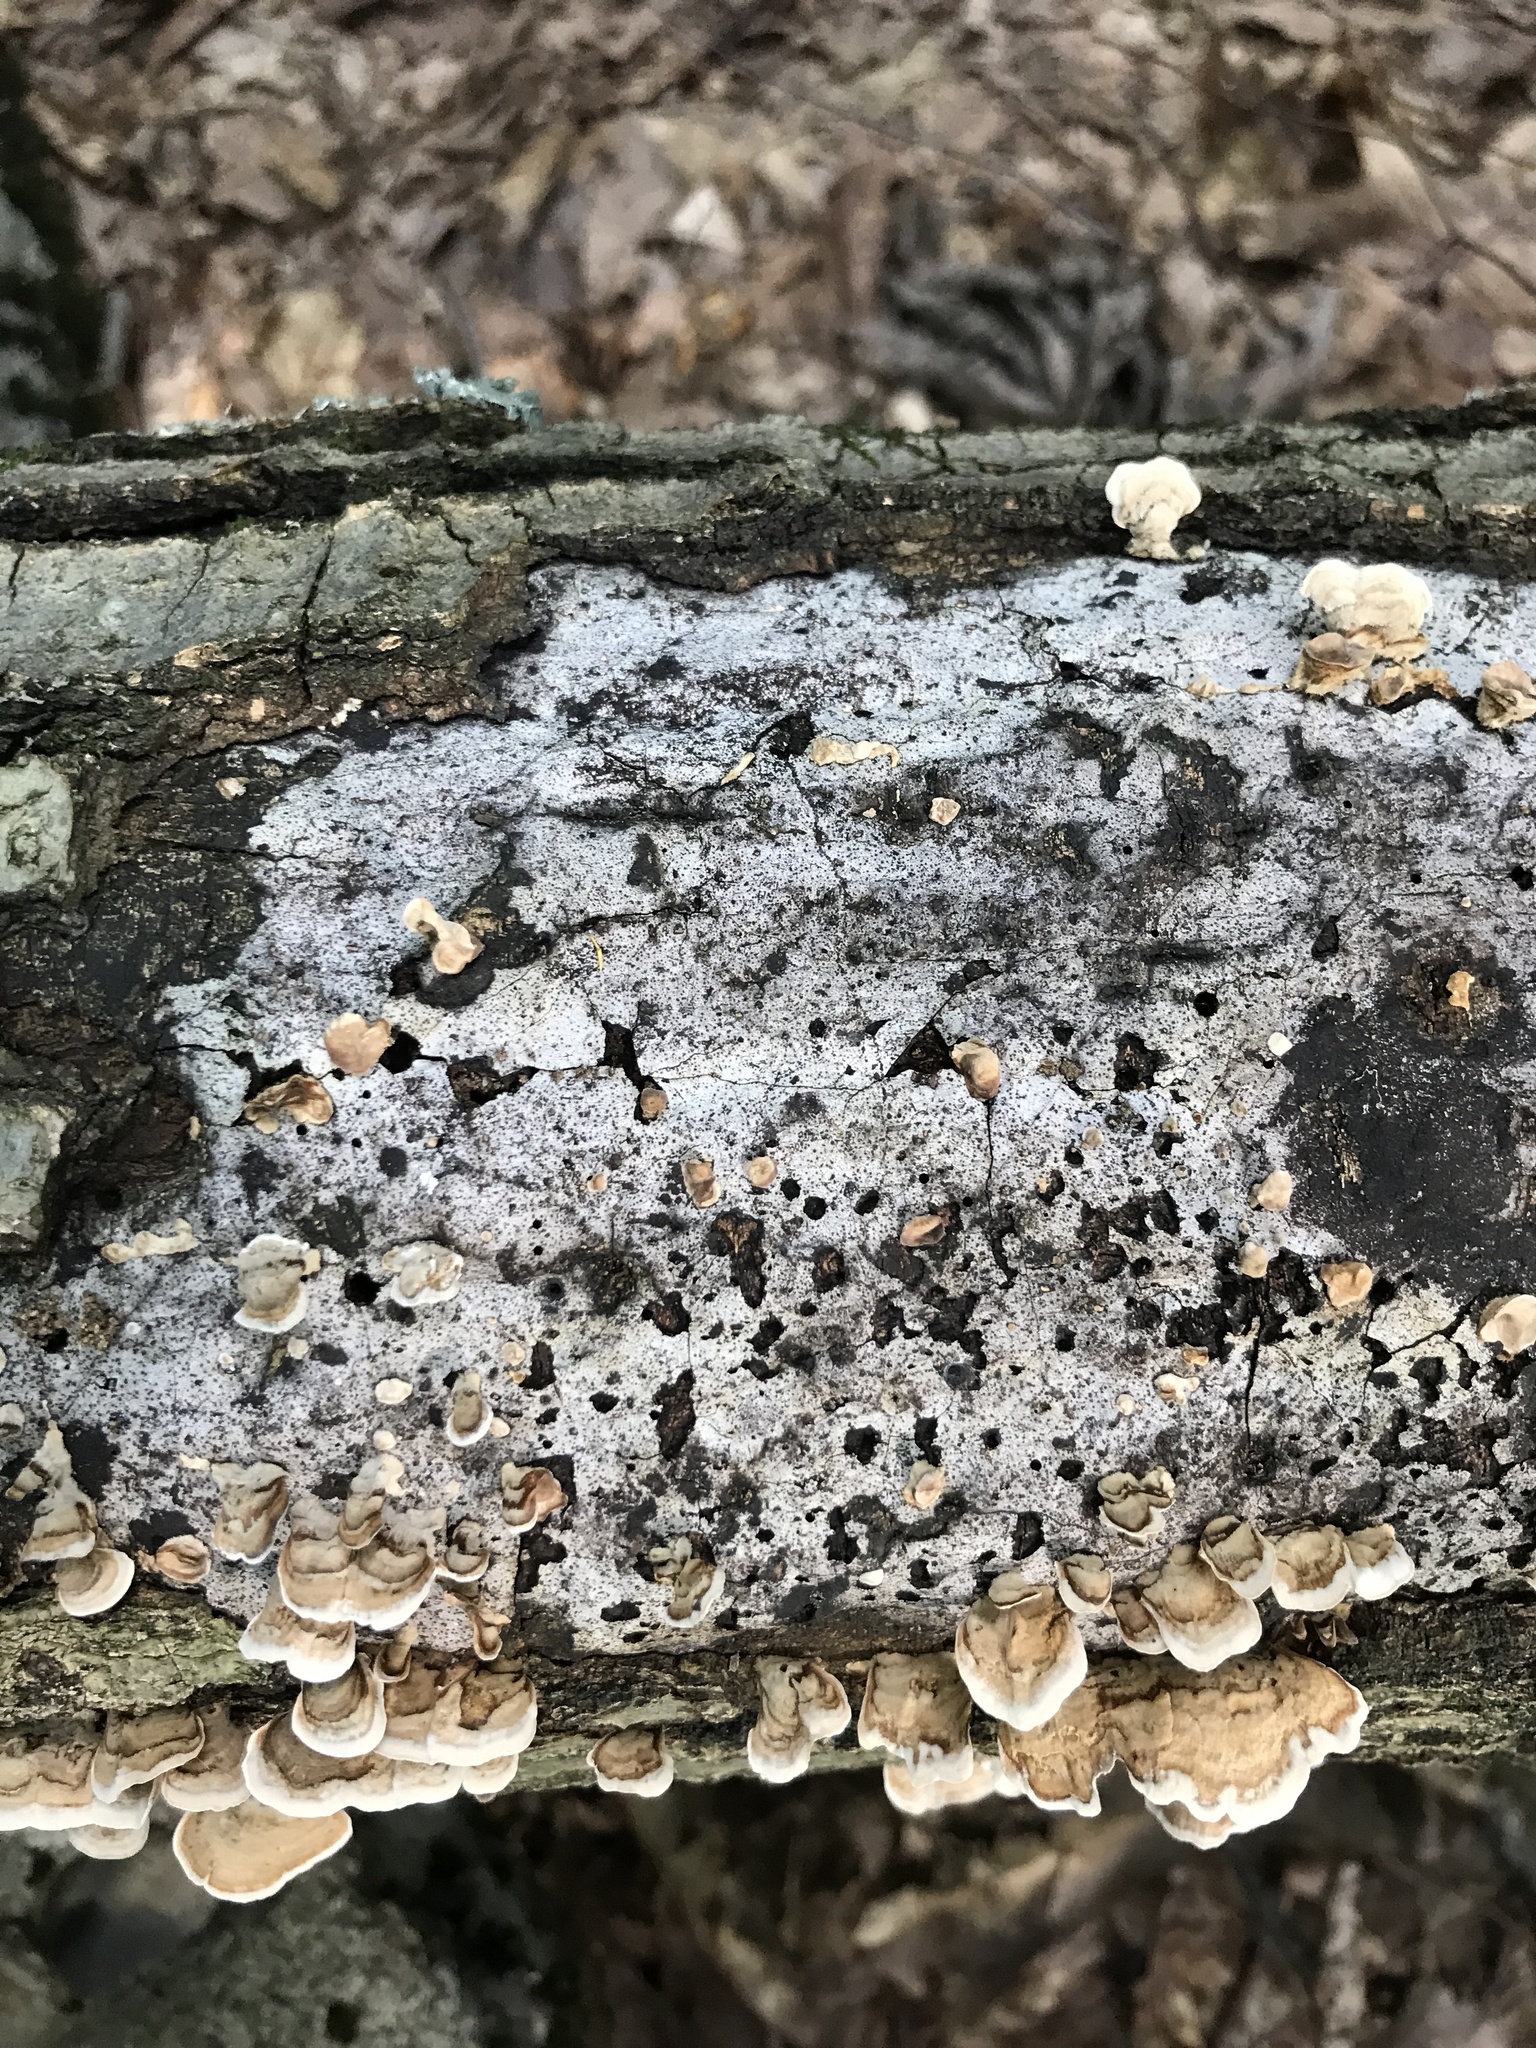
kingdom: Fungi
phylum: Ascomycota
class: Sordariomycetes
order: Xylariales
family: Graphostromataceae
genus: Biscogniauxia
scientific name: Biscogniauxia atropunctata
